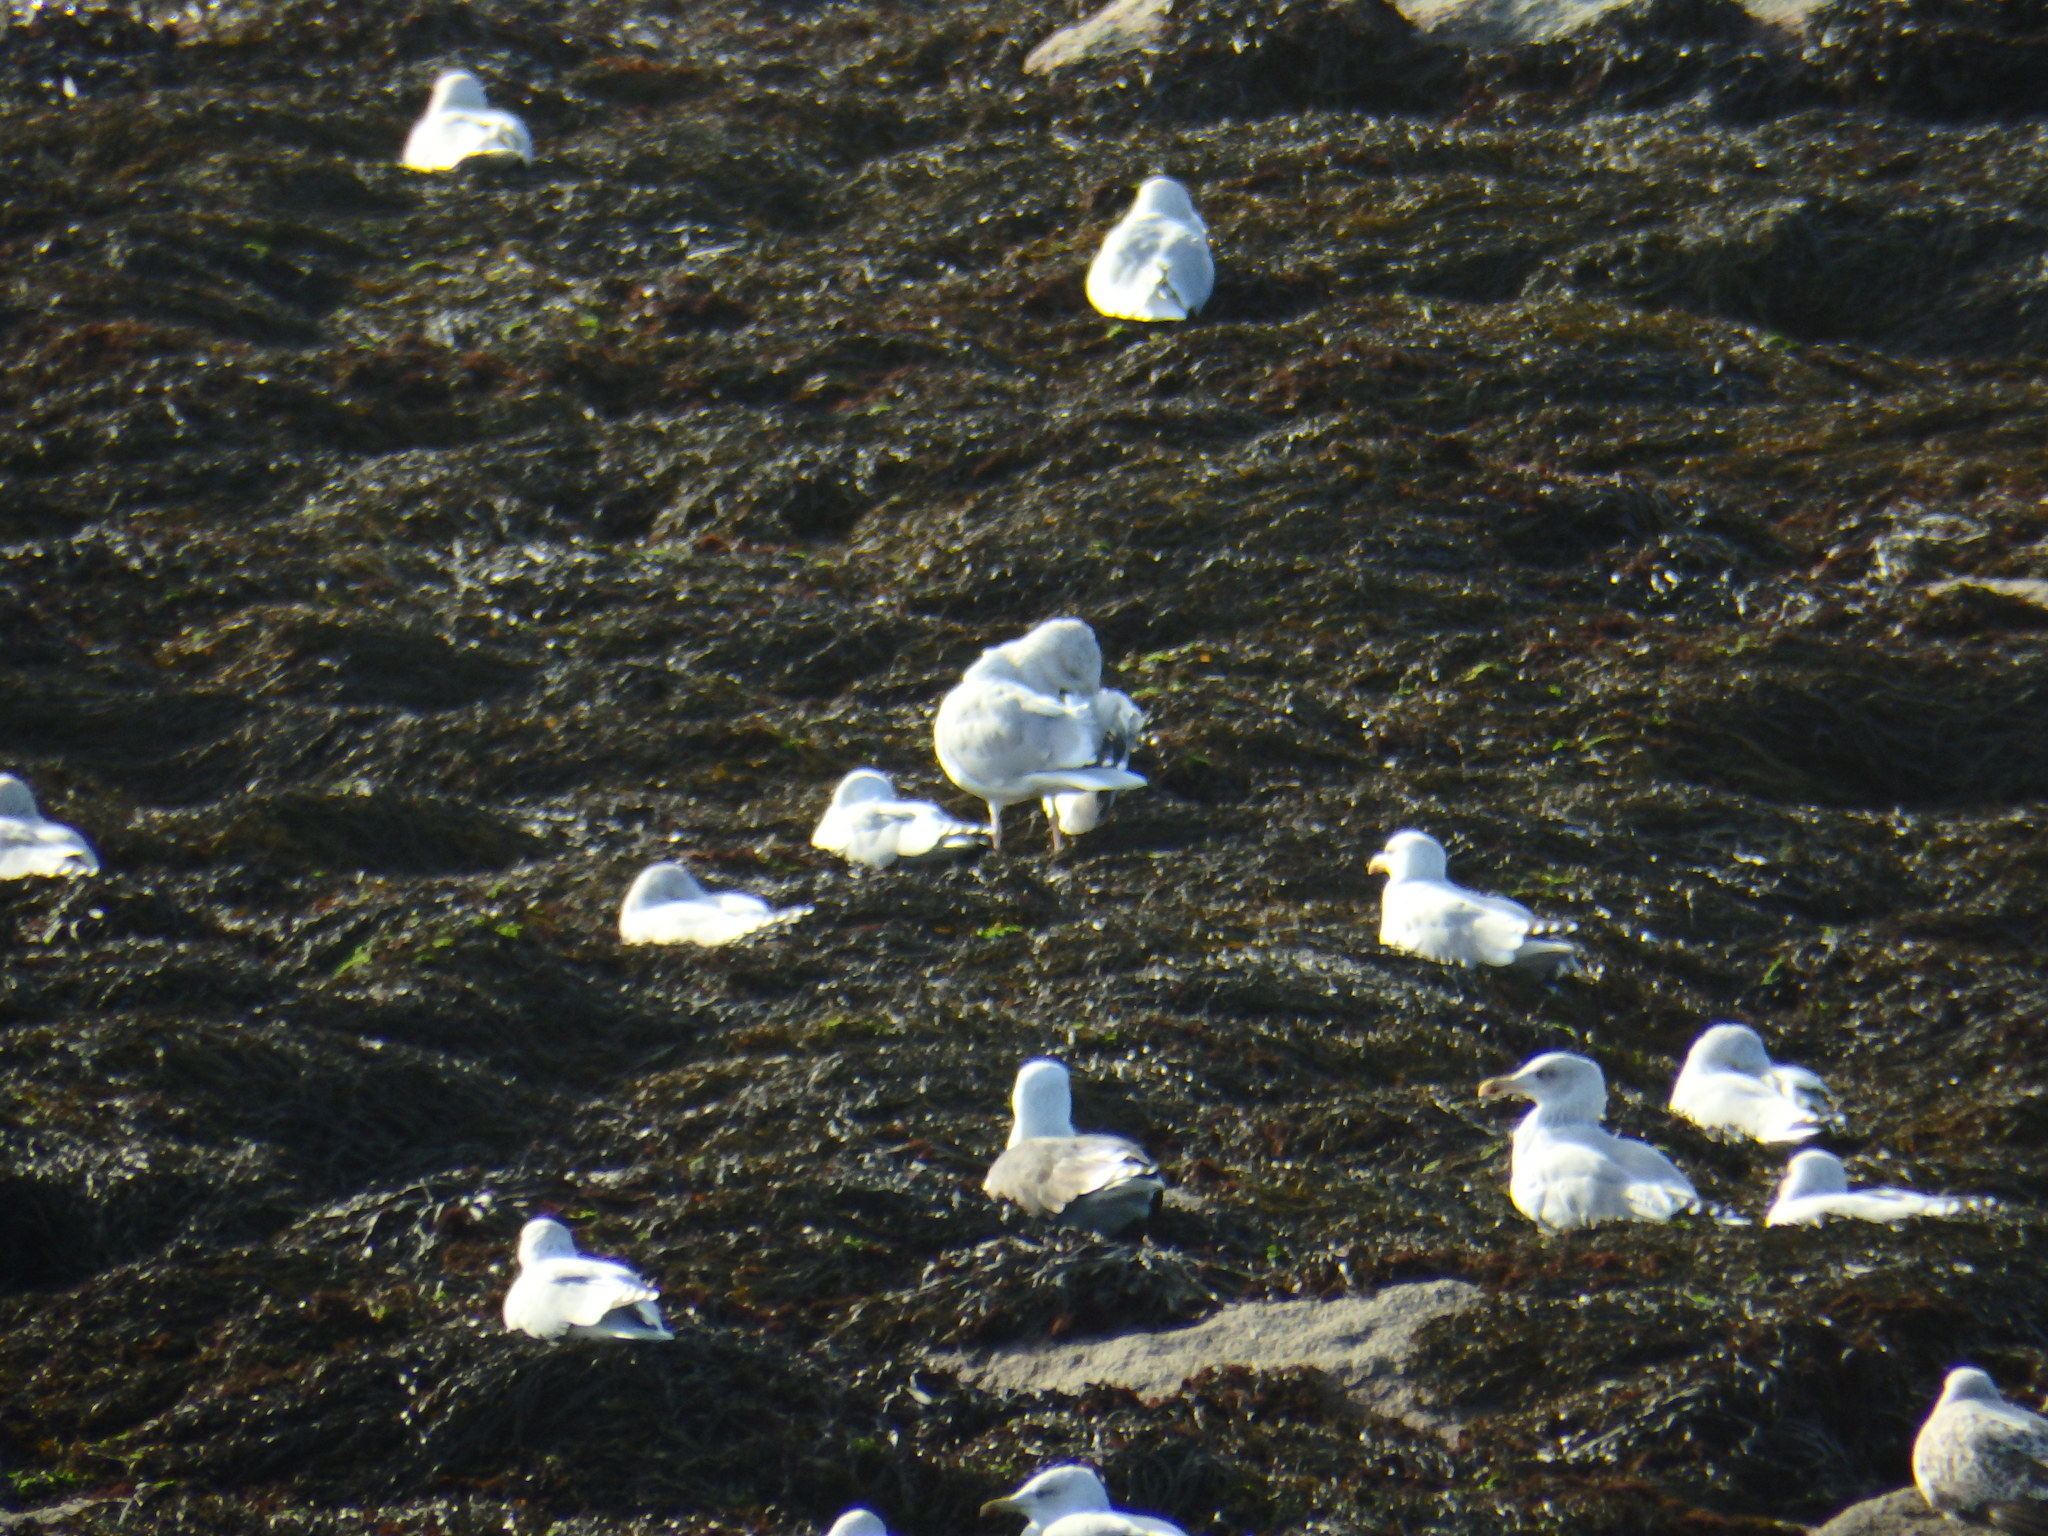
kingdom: Animalia
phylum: Chordata
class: Aves
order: Charadriiformes
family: Laridae
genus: Larus
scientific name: Larus argentatus
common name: Herring gull
